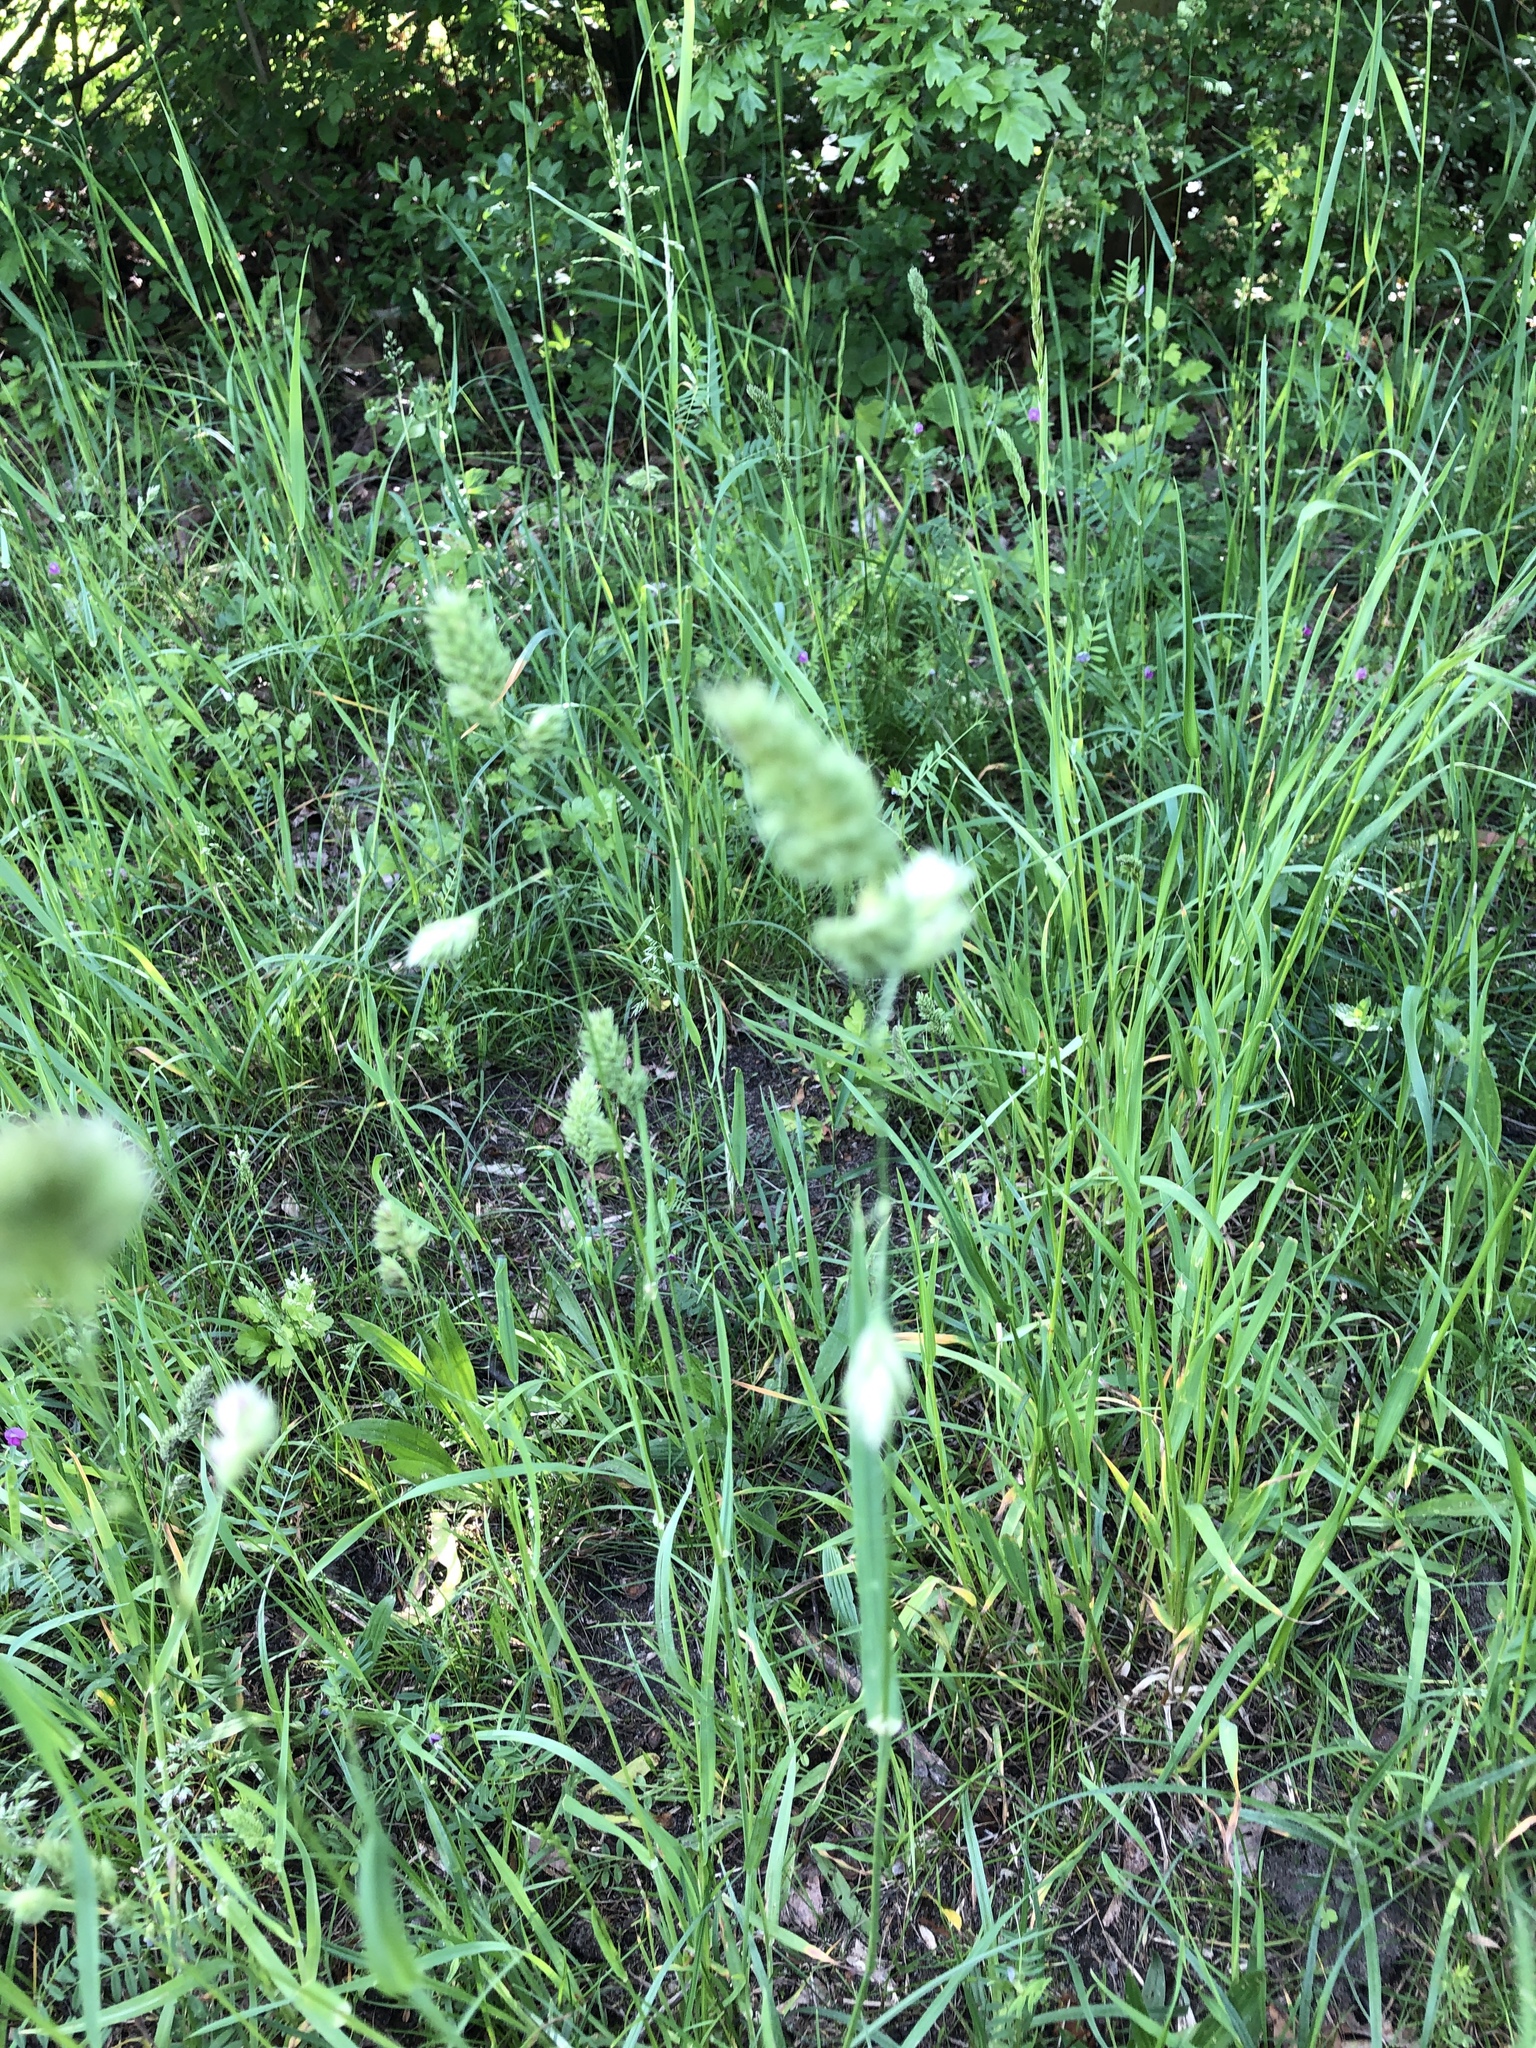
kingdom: Plantae
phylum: Tracheophyta
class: Liliopsida
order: Poales
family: Poaceae
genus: Dactylis
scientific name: Dactylis glomerata
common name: Orchardgrass
